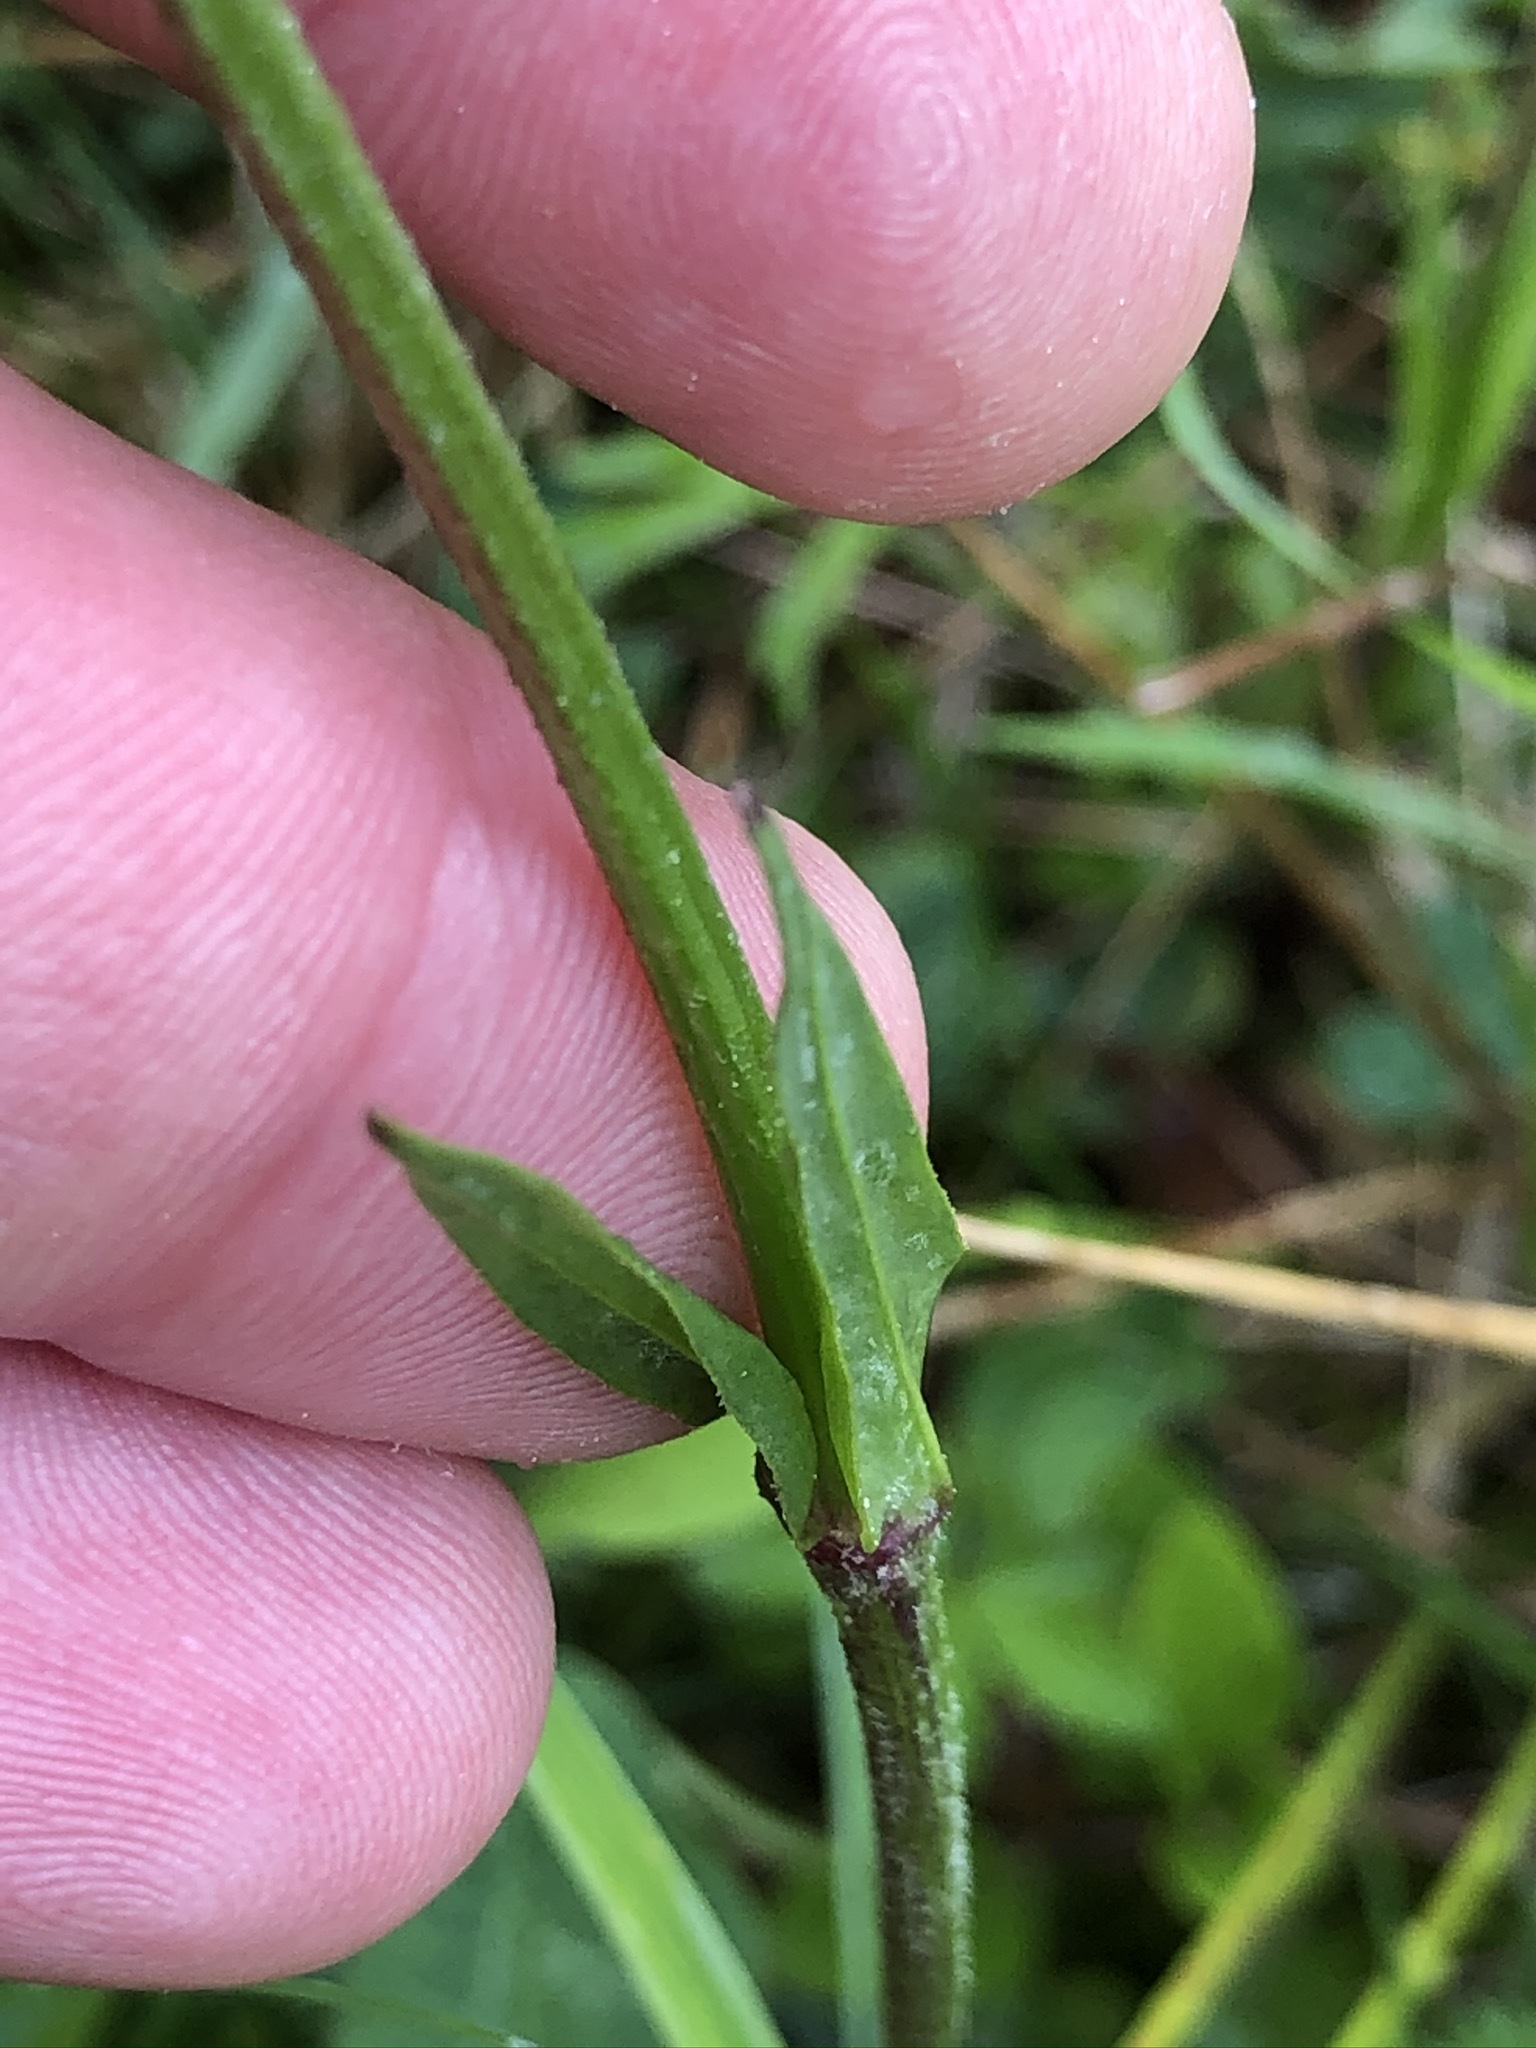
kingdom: Plantae
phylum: Tracheophyta
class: Magnoliopsida
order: Caryophyllales
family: Caryophyllaceae
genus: Silene
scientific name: Silene flos-cuculi
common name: Ragged-robin
